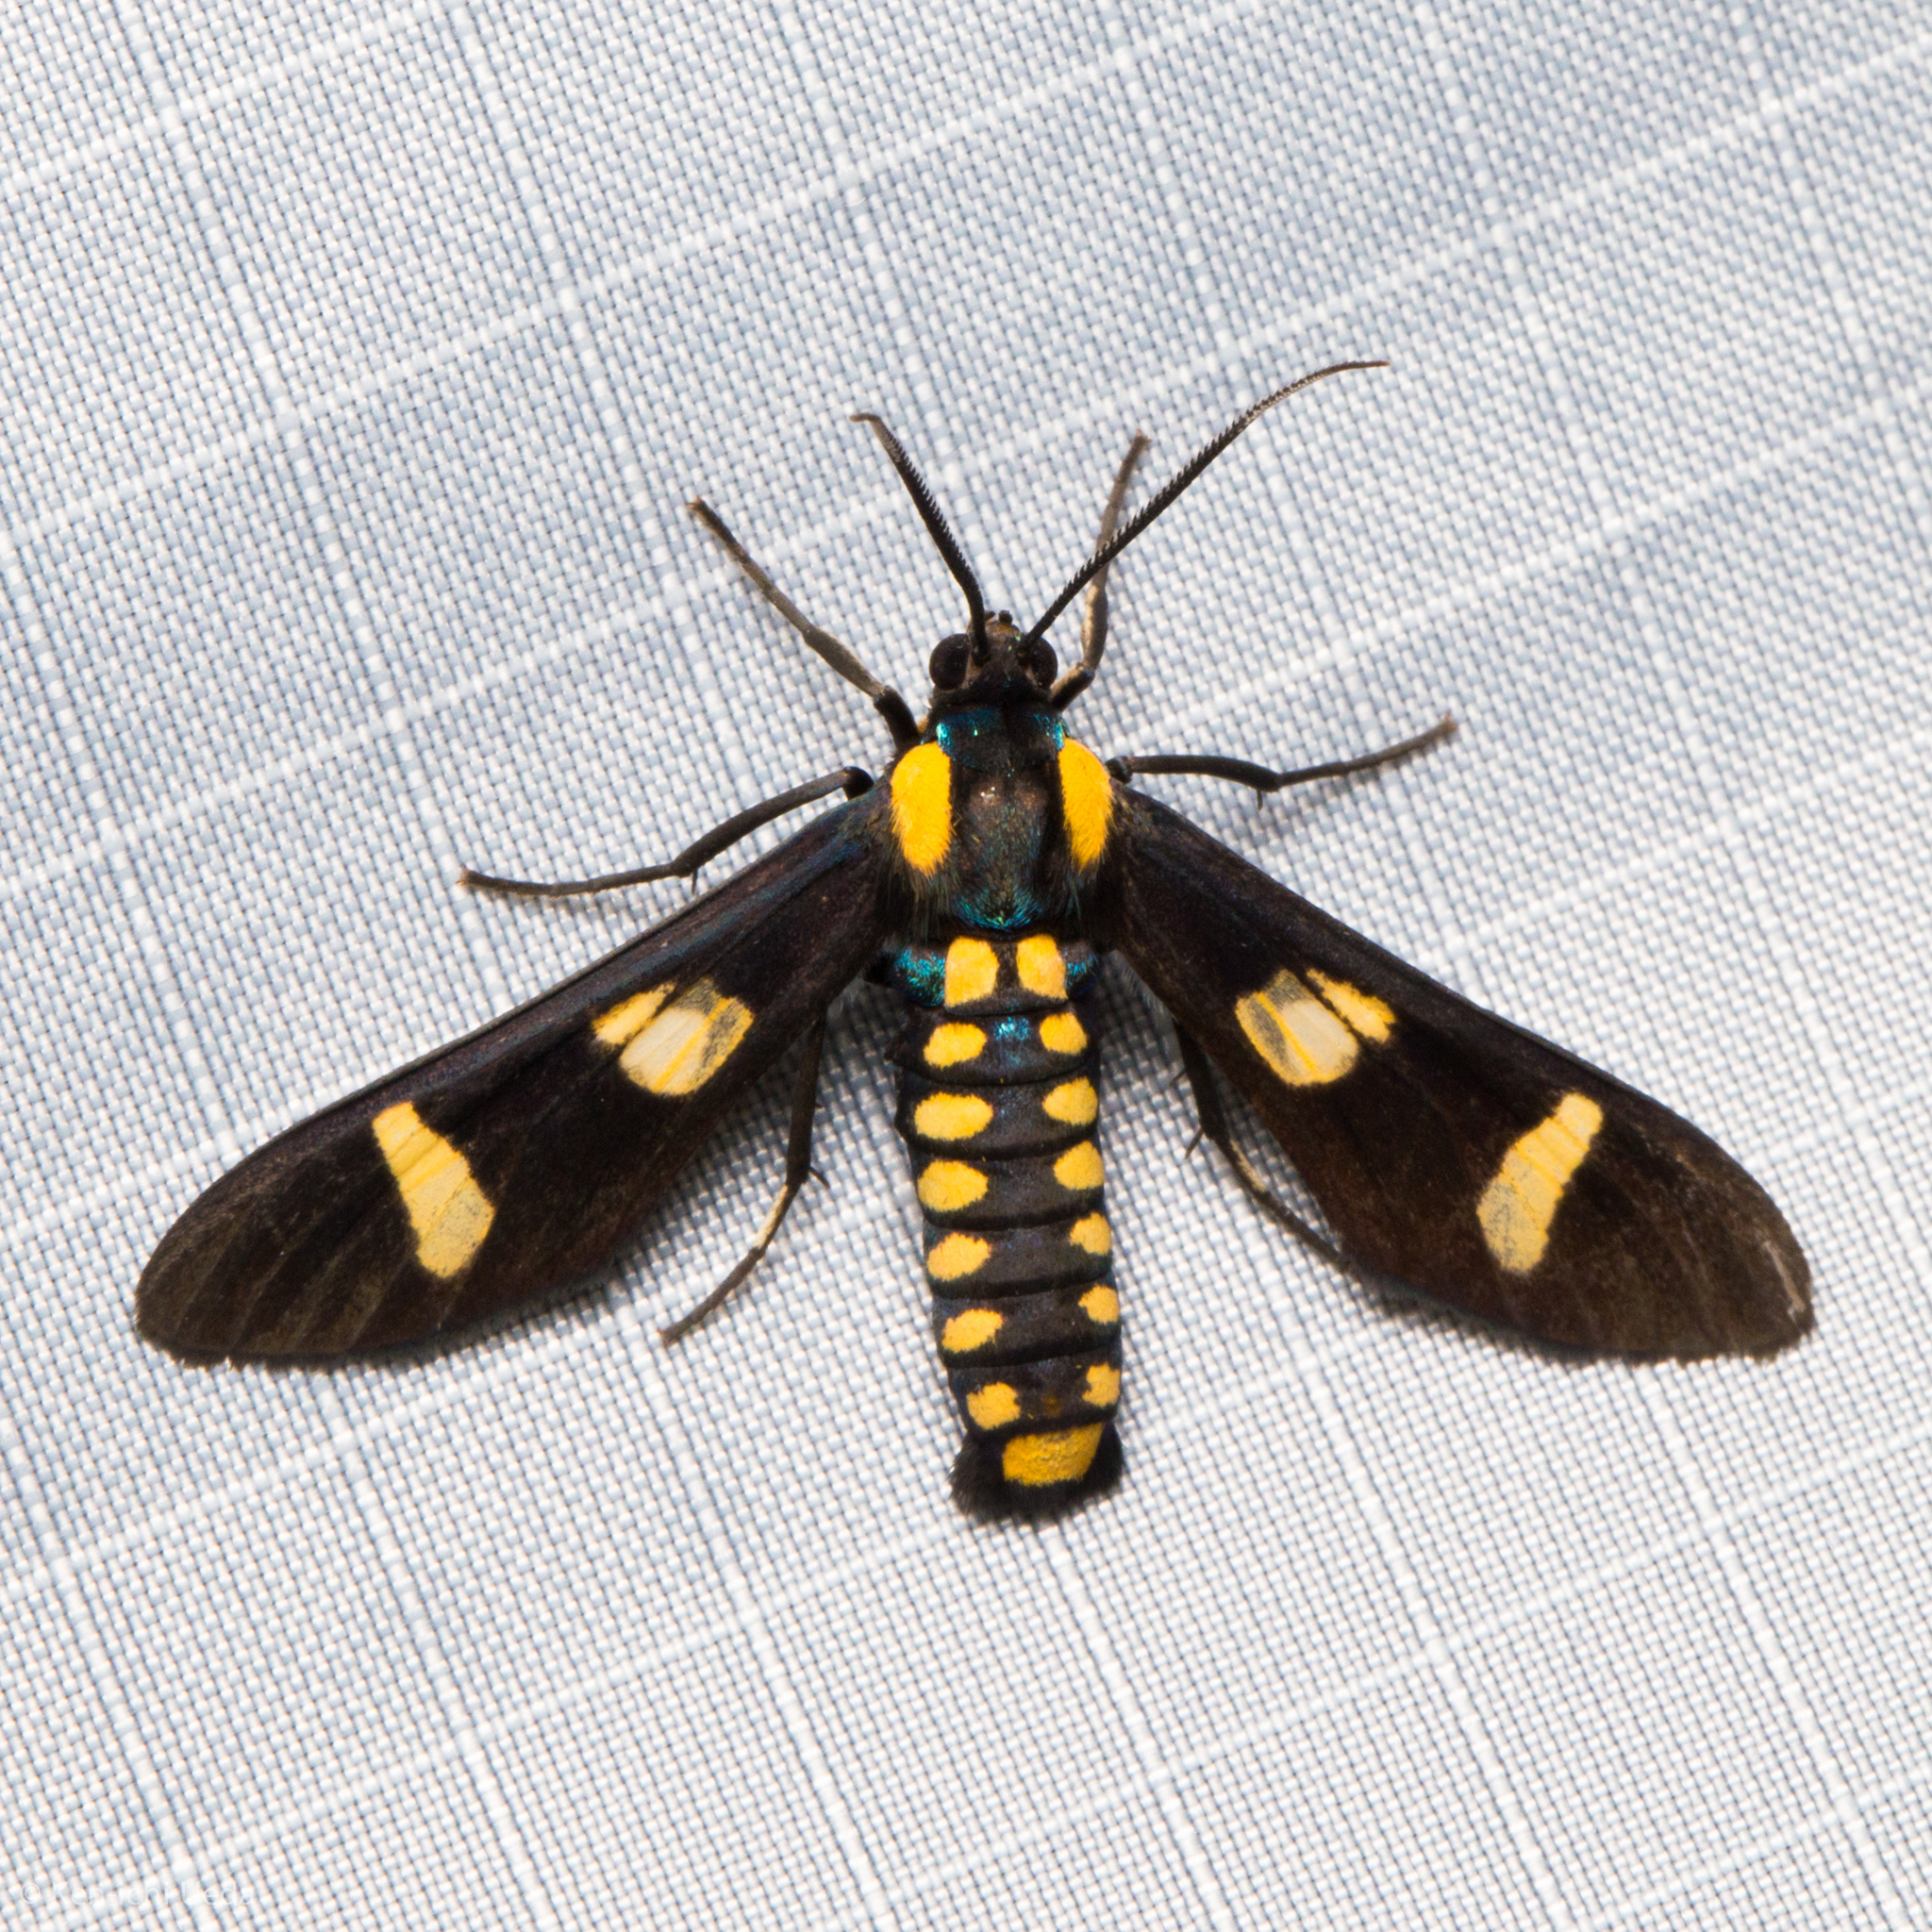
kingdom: Animalia
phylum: Arthropoda
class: Insecta
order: Lepidoptera
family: Erebidae
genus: Phoenicoprocta
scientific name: Phoenicoprocta hampsonii
